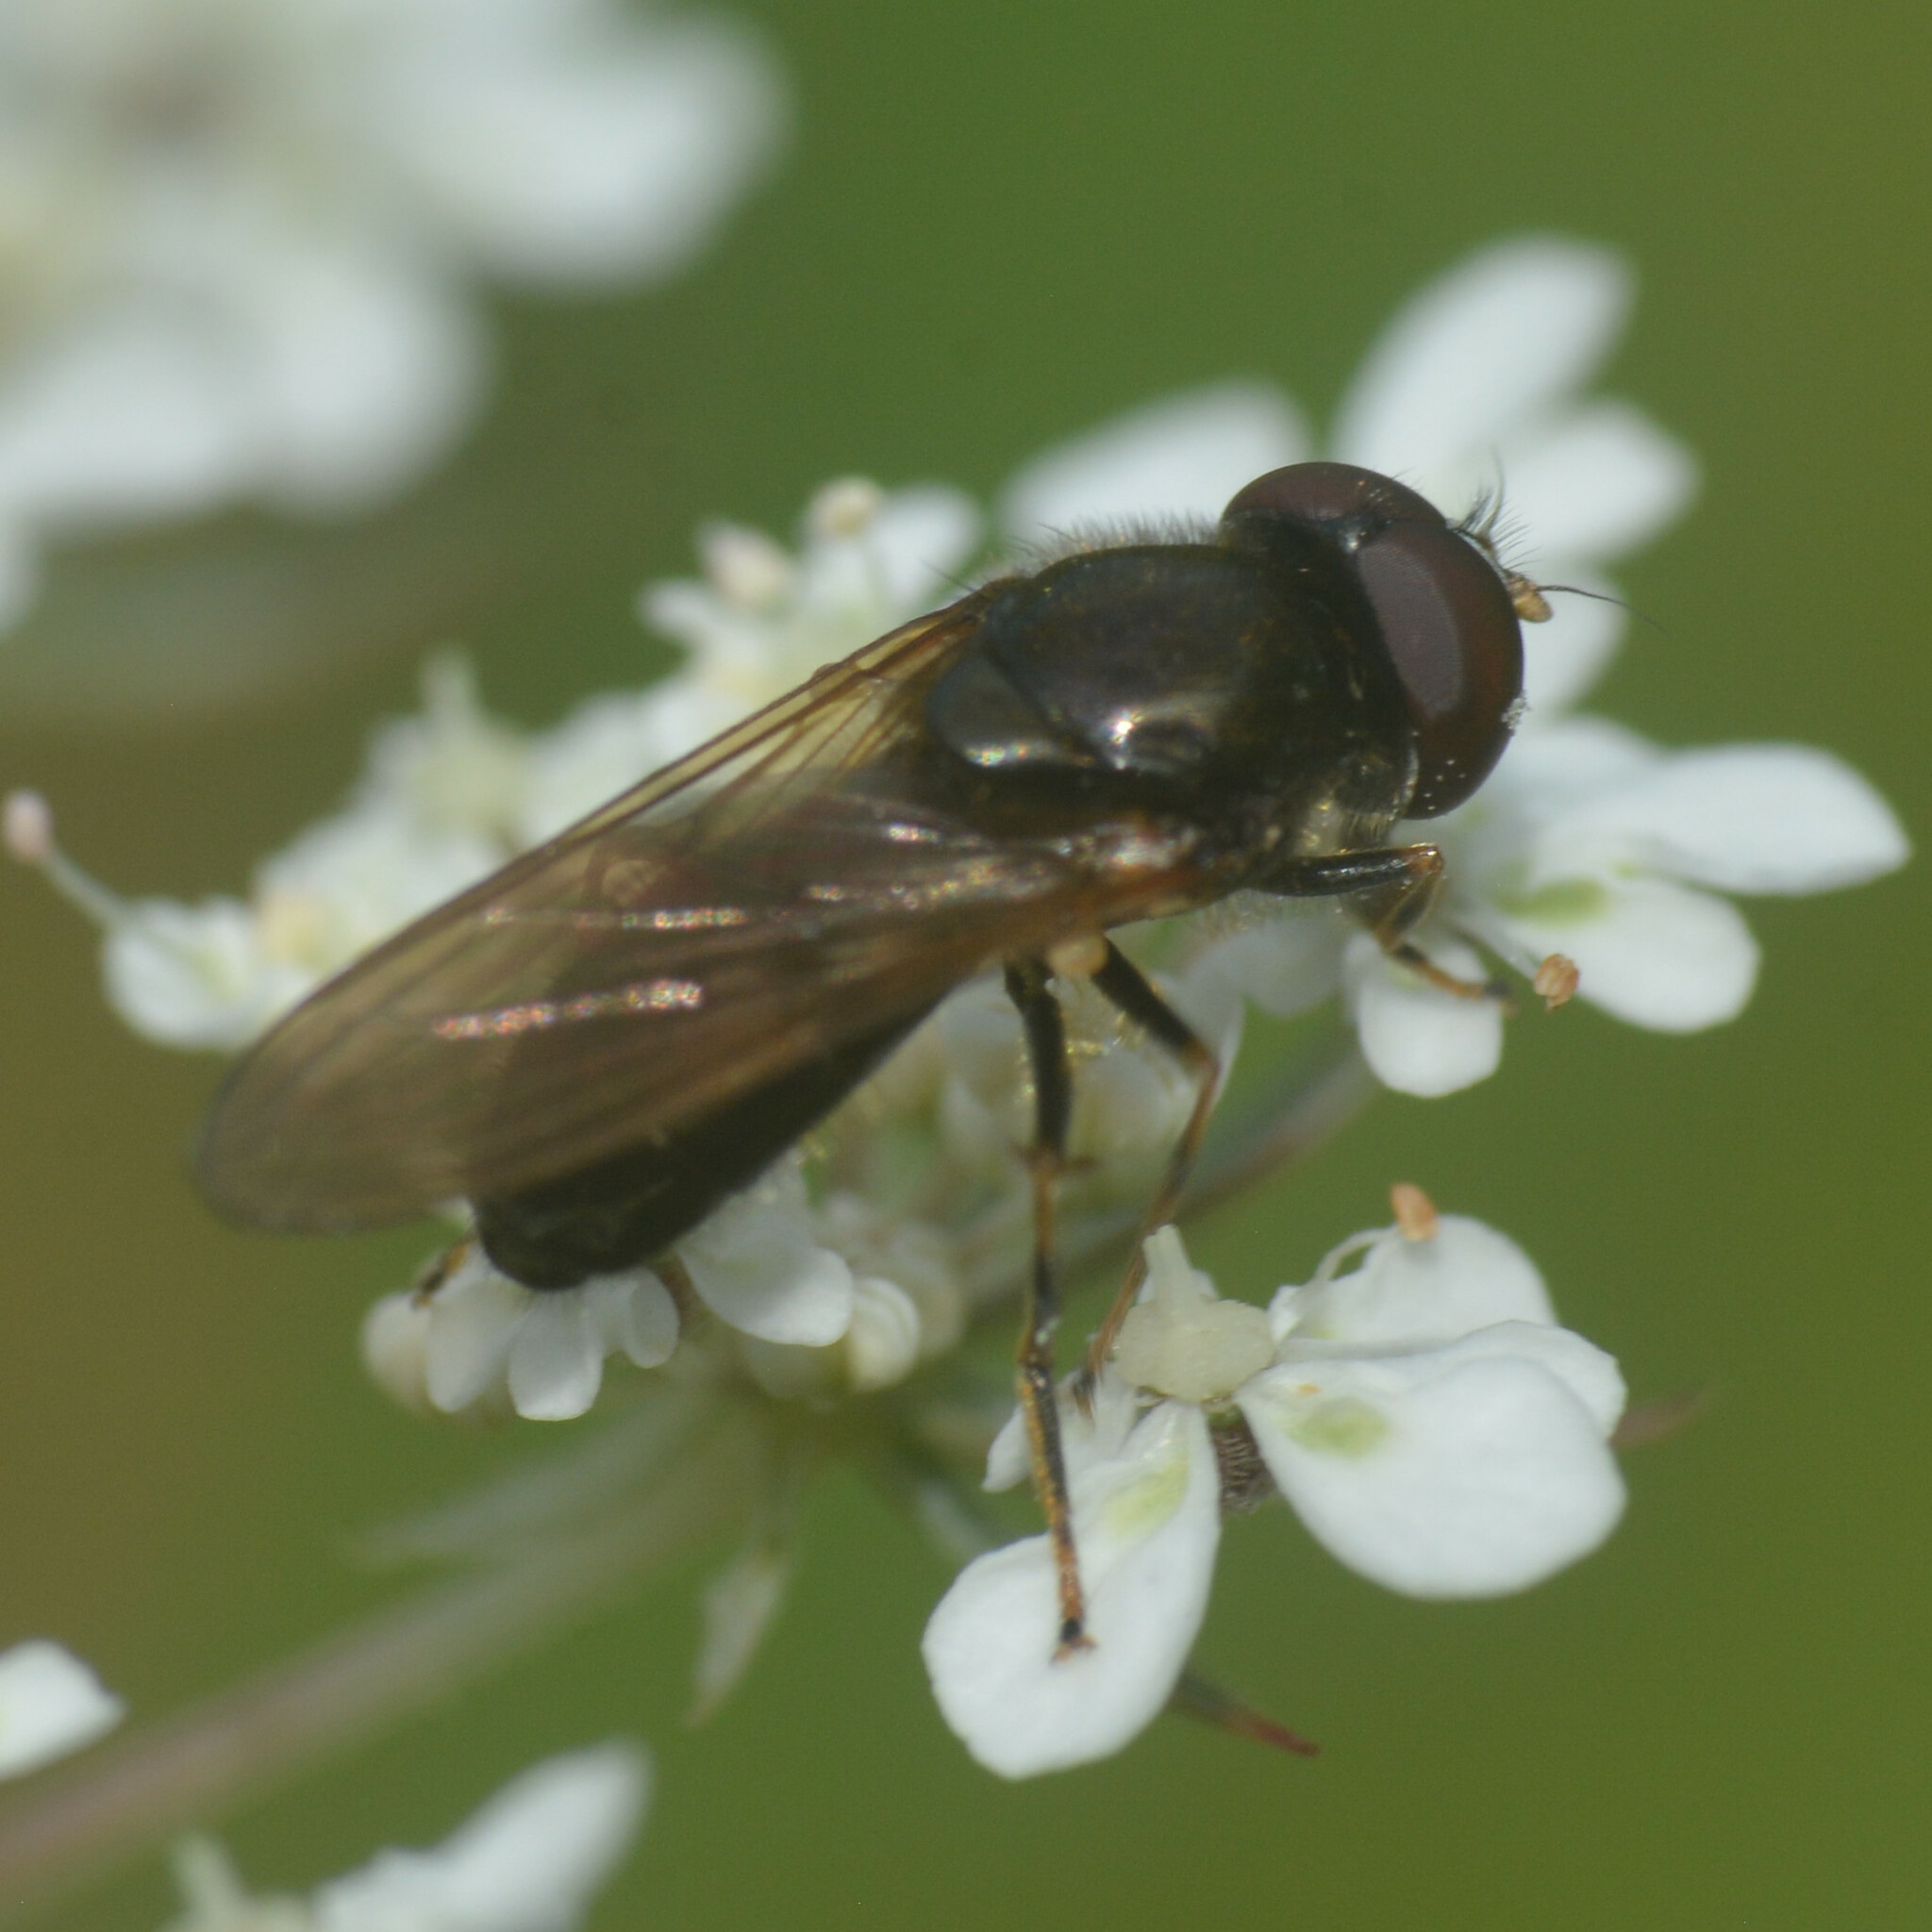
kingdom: Animalia
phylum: Arthropoda
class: Insecta
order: Diptera
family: Syrphidae
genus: Cheilosia
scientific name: Cheilosia pagana
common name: Hover fly
